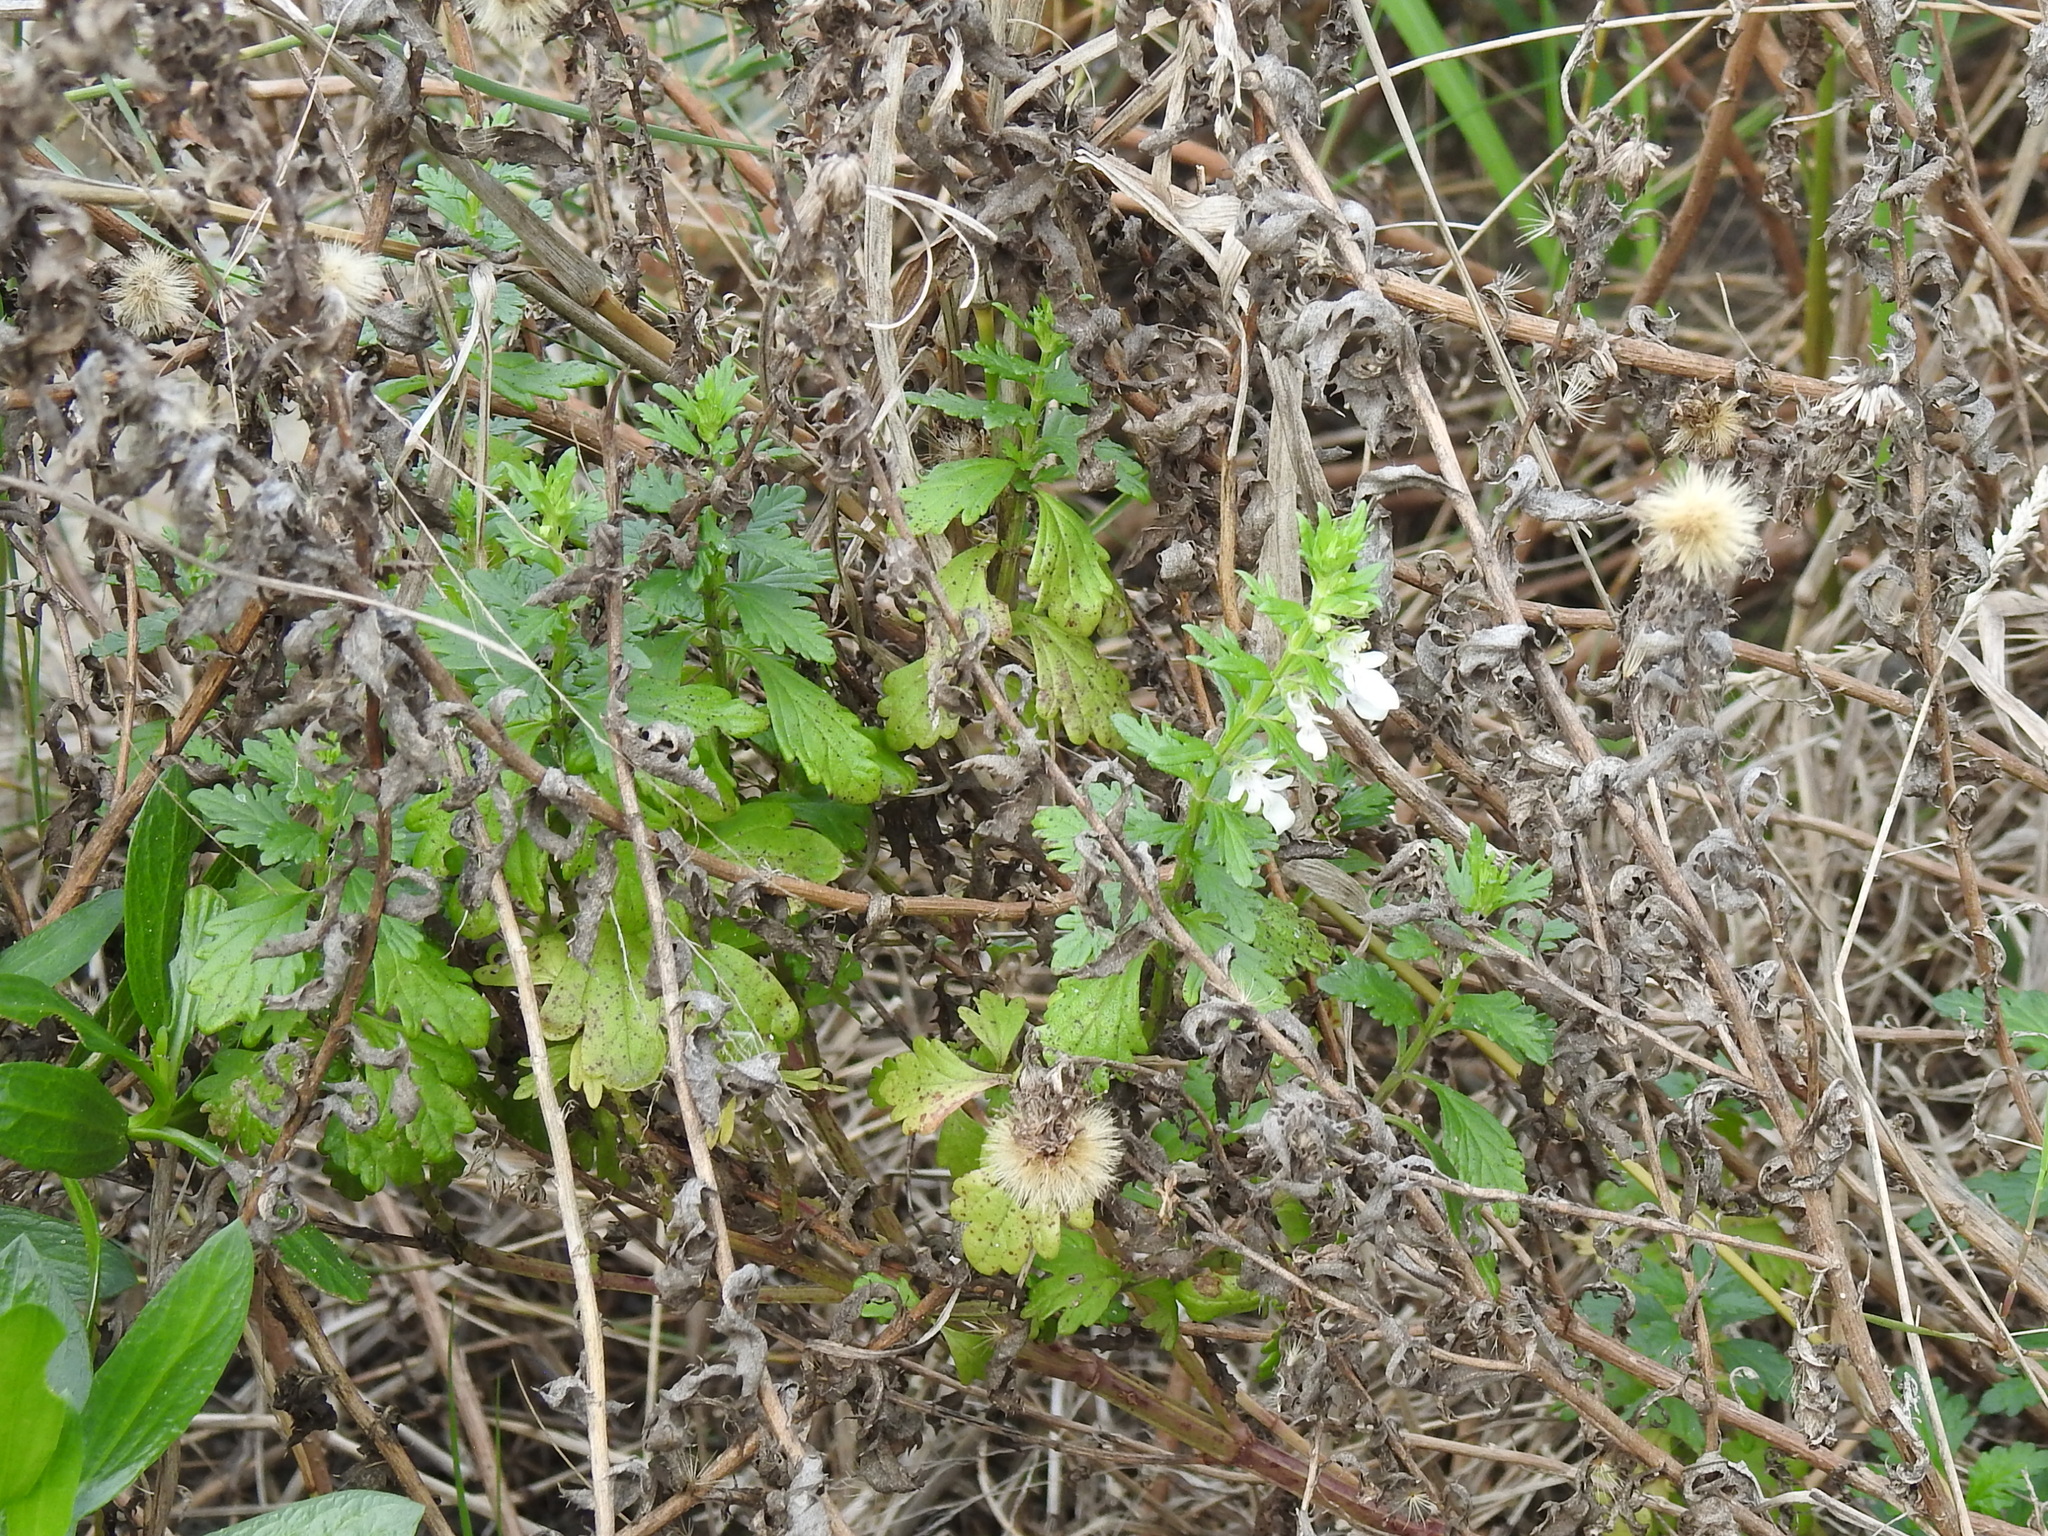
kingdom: Plantae
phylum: Tracheophyta
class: Magnoliopsida
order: Lamiales
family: Lamiaceae
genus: Teucrium
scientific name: Teucrium cubense
